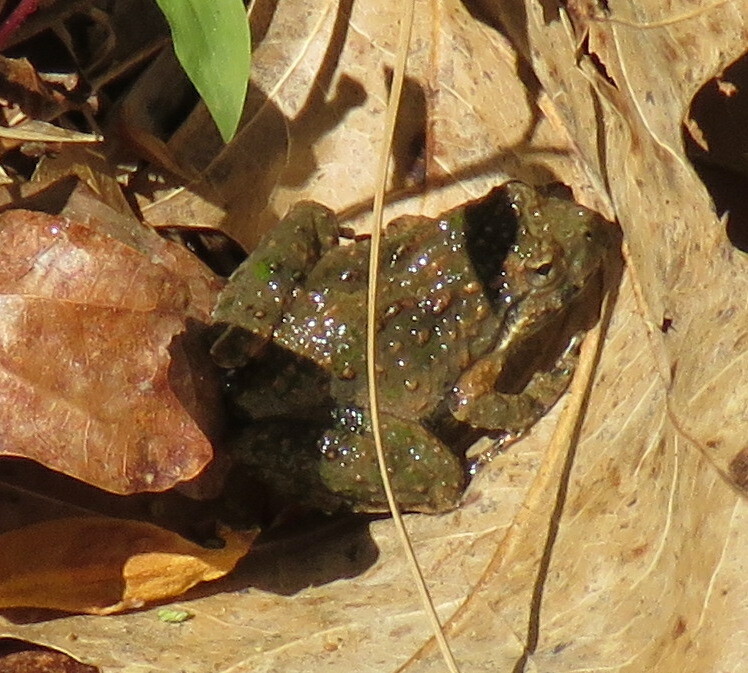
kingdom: Animalia
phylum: Chordata
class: Amphibia
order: Anura
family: Hylidae
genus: Acris
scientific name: Acris crepitans
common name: Northern cricket frog
